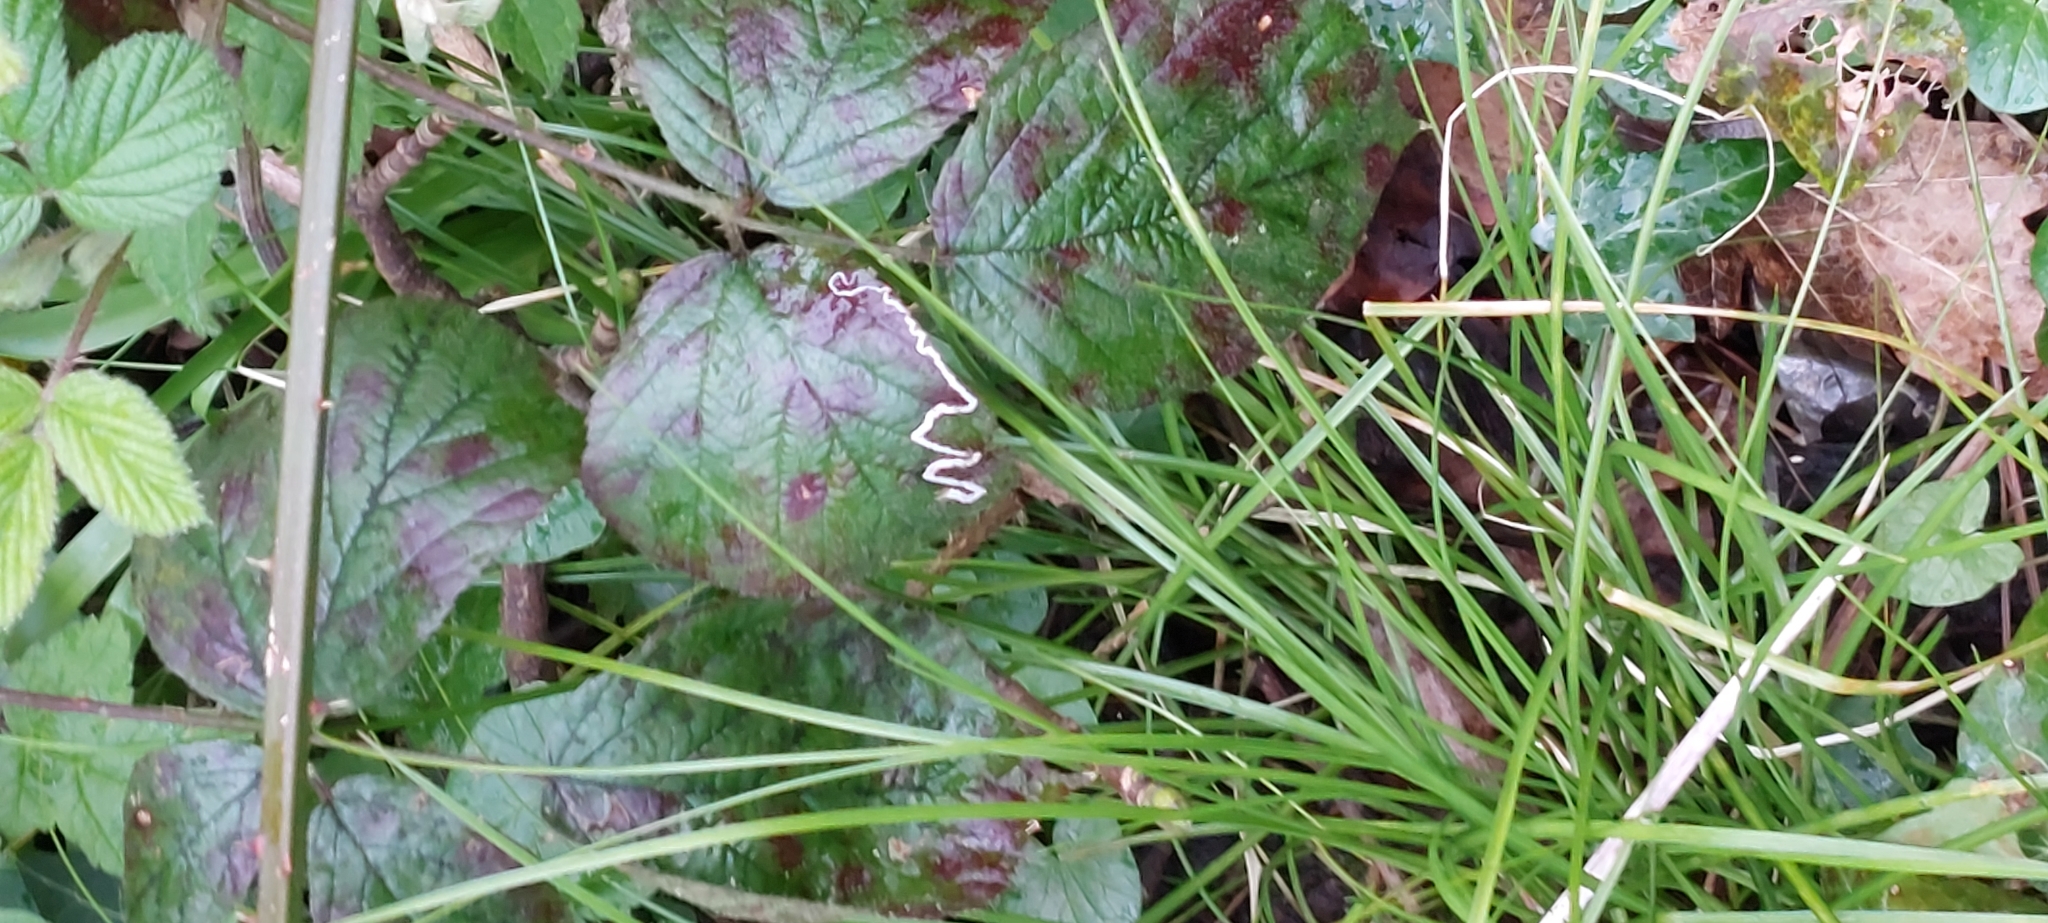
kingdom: Animalia
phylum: Arthropoda
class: Insecta
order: Lepidoptera
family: Nepticulidae
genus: Stigmella
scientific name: Stigmella aurella
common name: Golden pigmy
